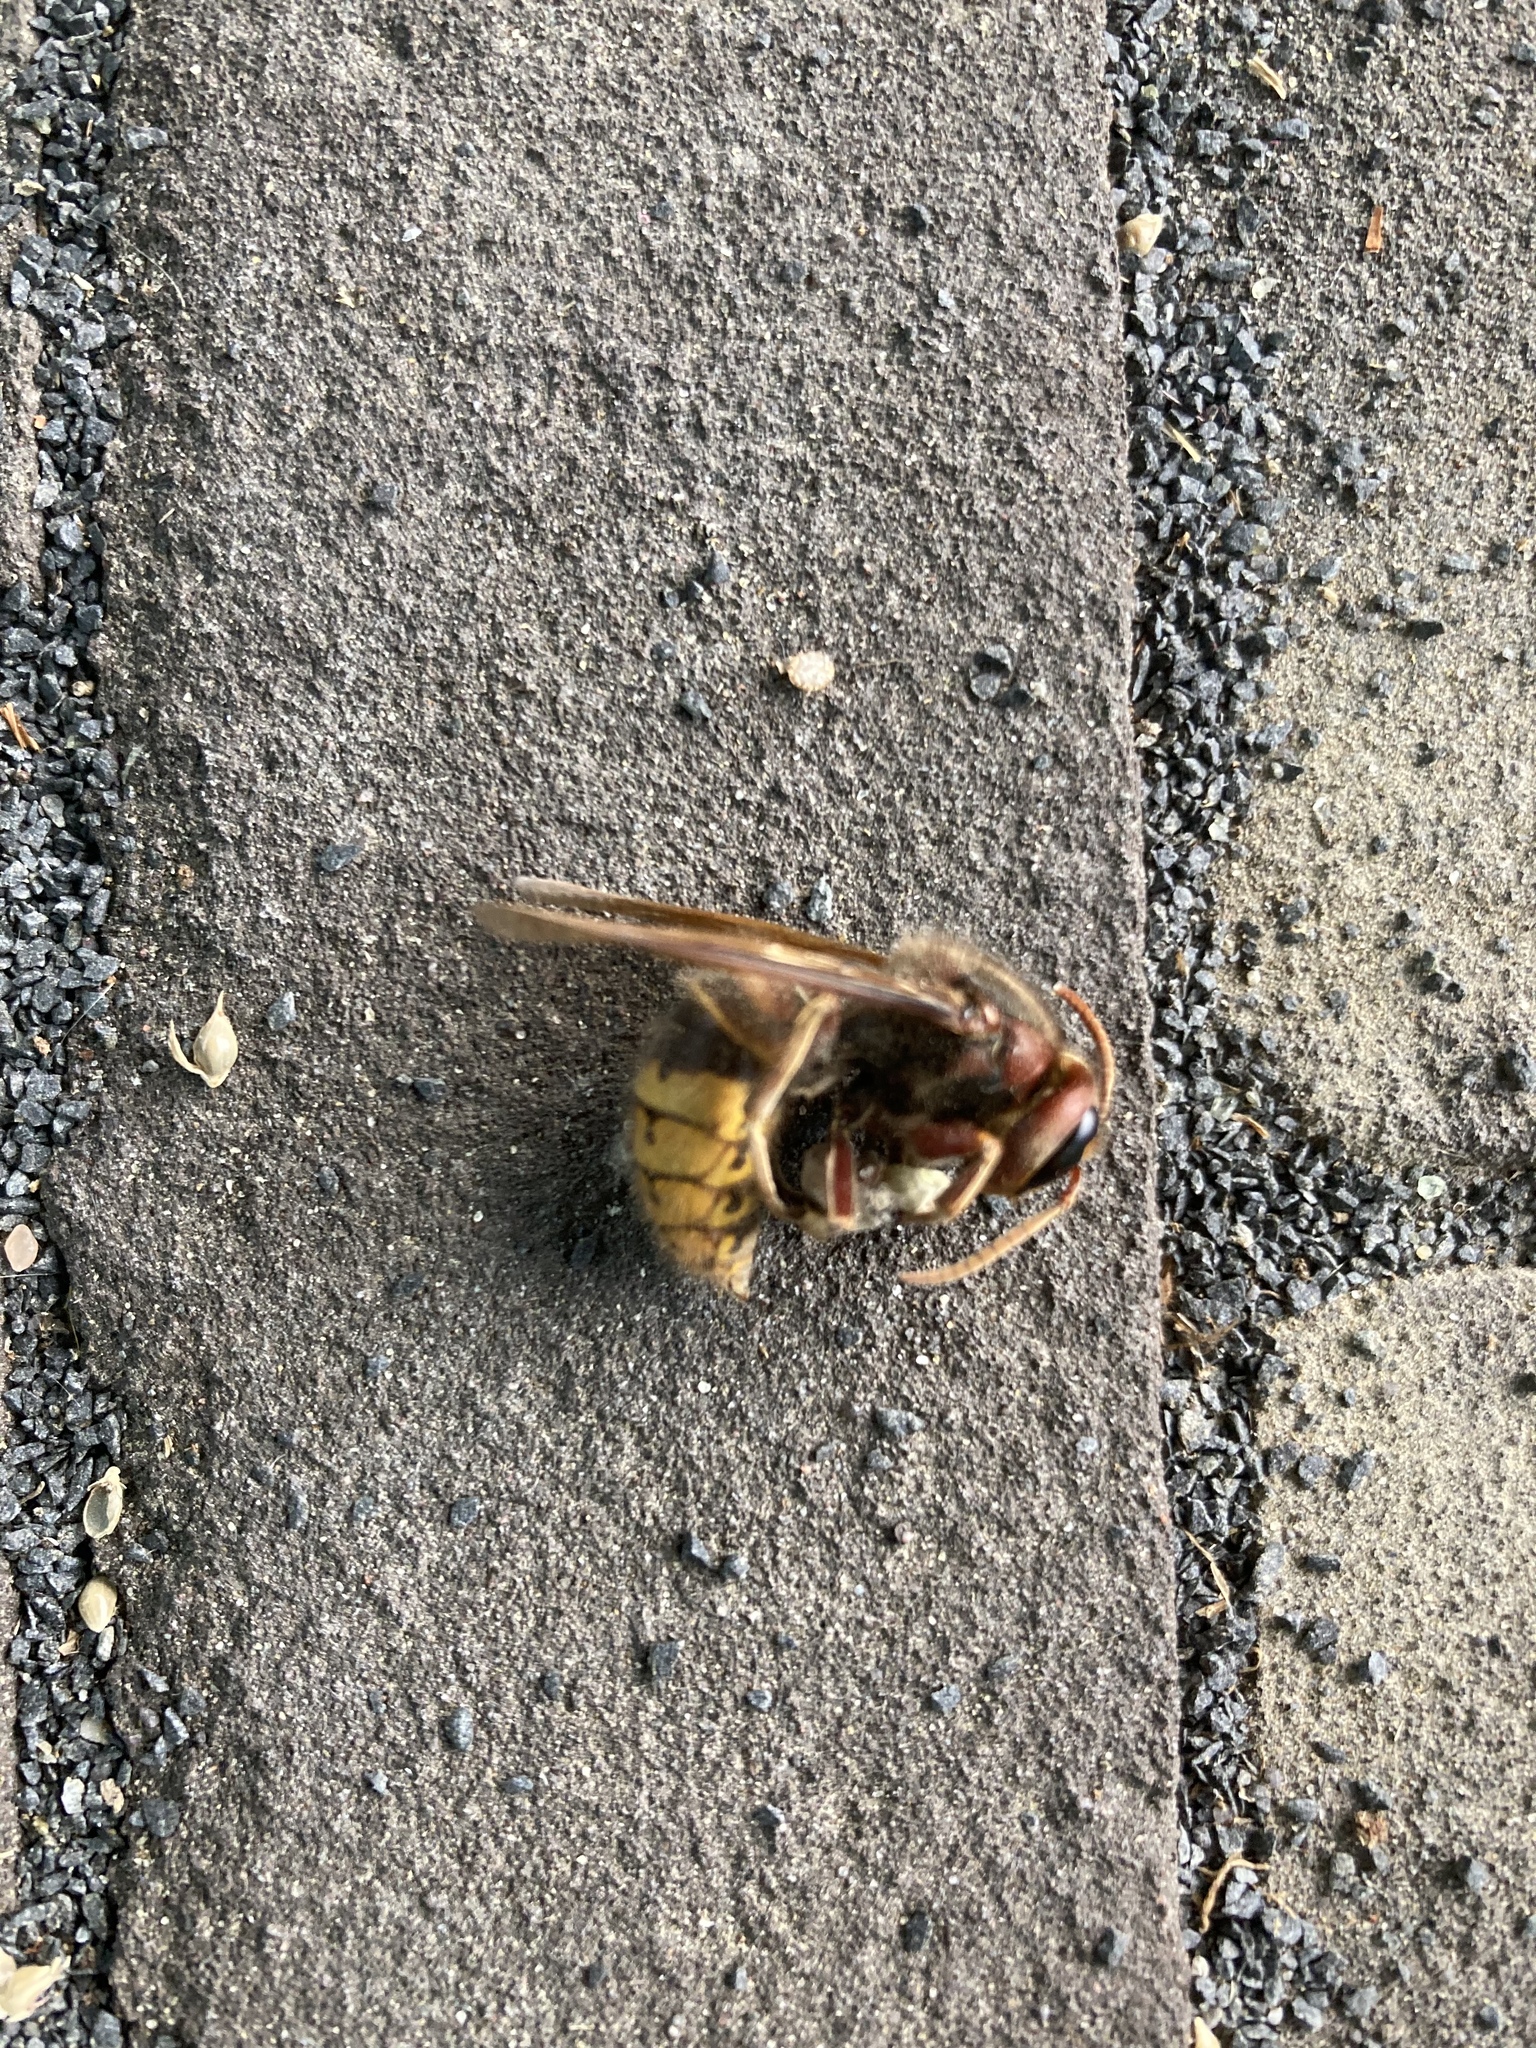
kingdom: Animalia
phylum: Arthropoda
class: Insecta
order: Hymenoptera
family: Vespidae
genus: Vespa
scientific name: Vespa crabro
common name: Hornet
